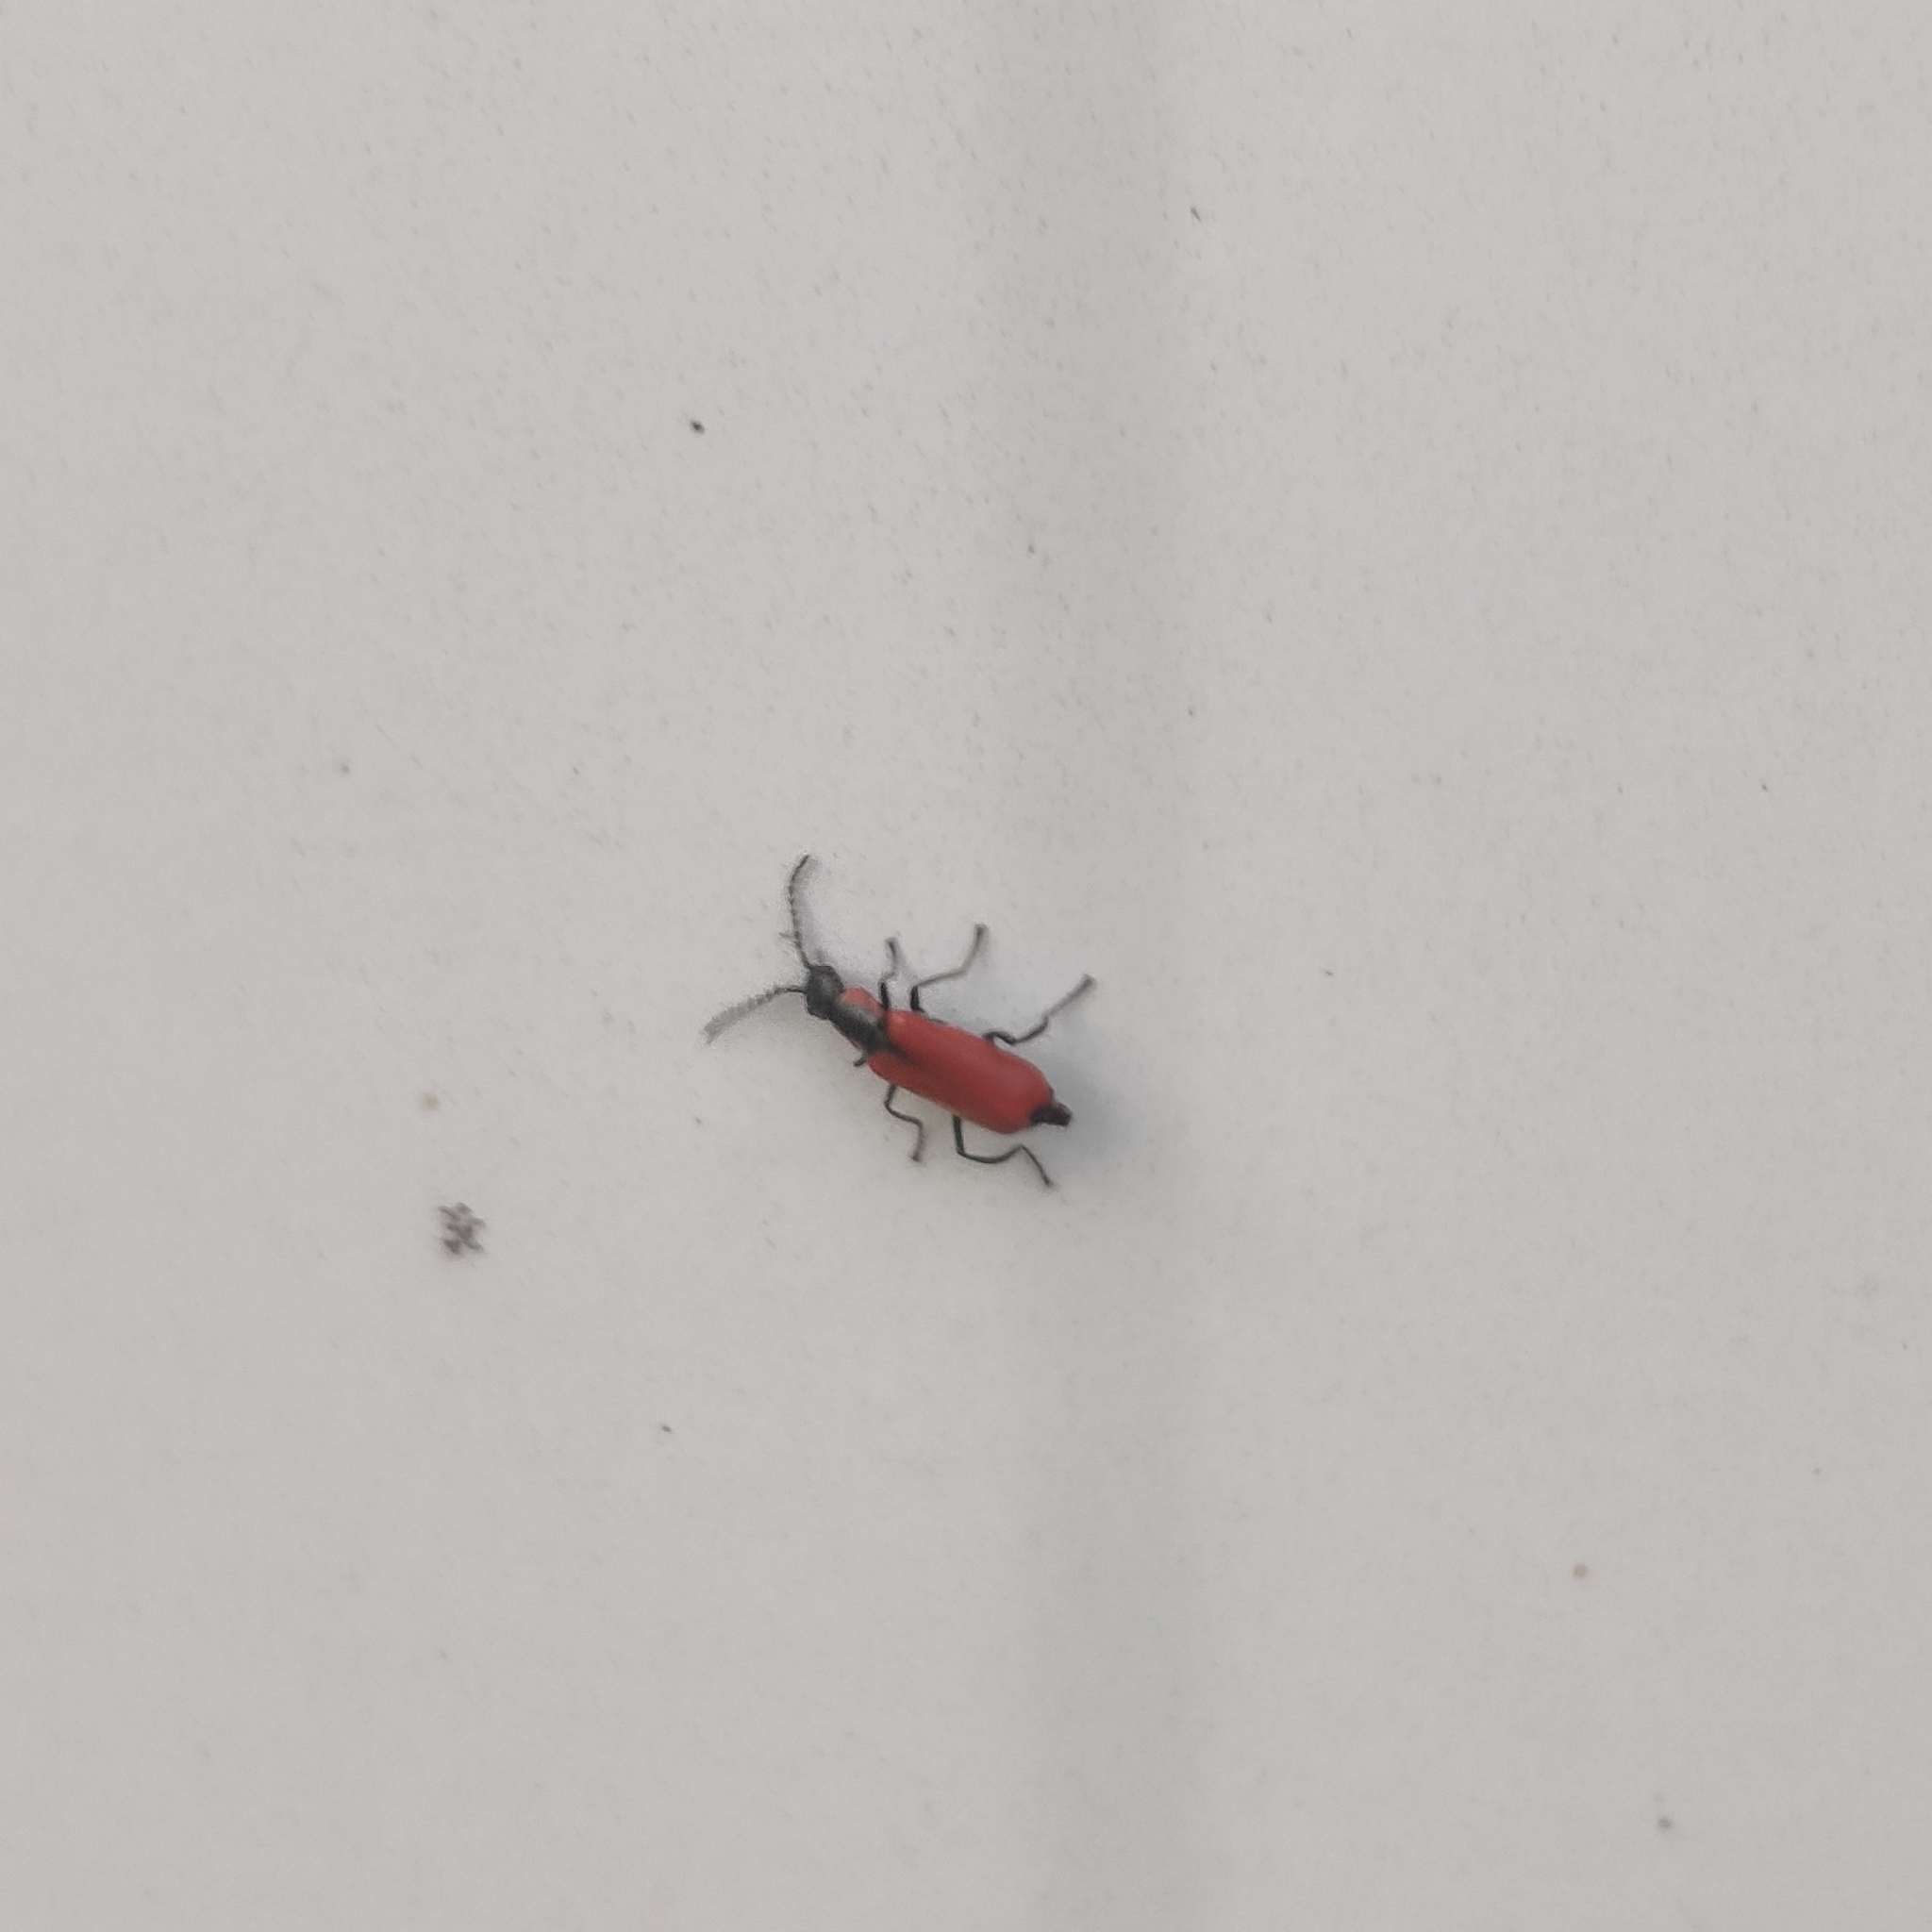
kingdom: Animalia
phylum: Arthropoda
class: Insecta
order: Coleoptera
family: Melyridae
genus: Anthocomus
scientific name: Anthocomus rufus
